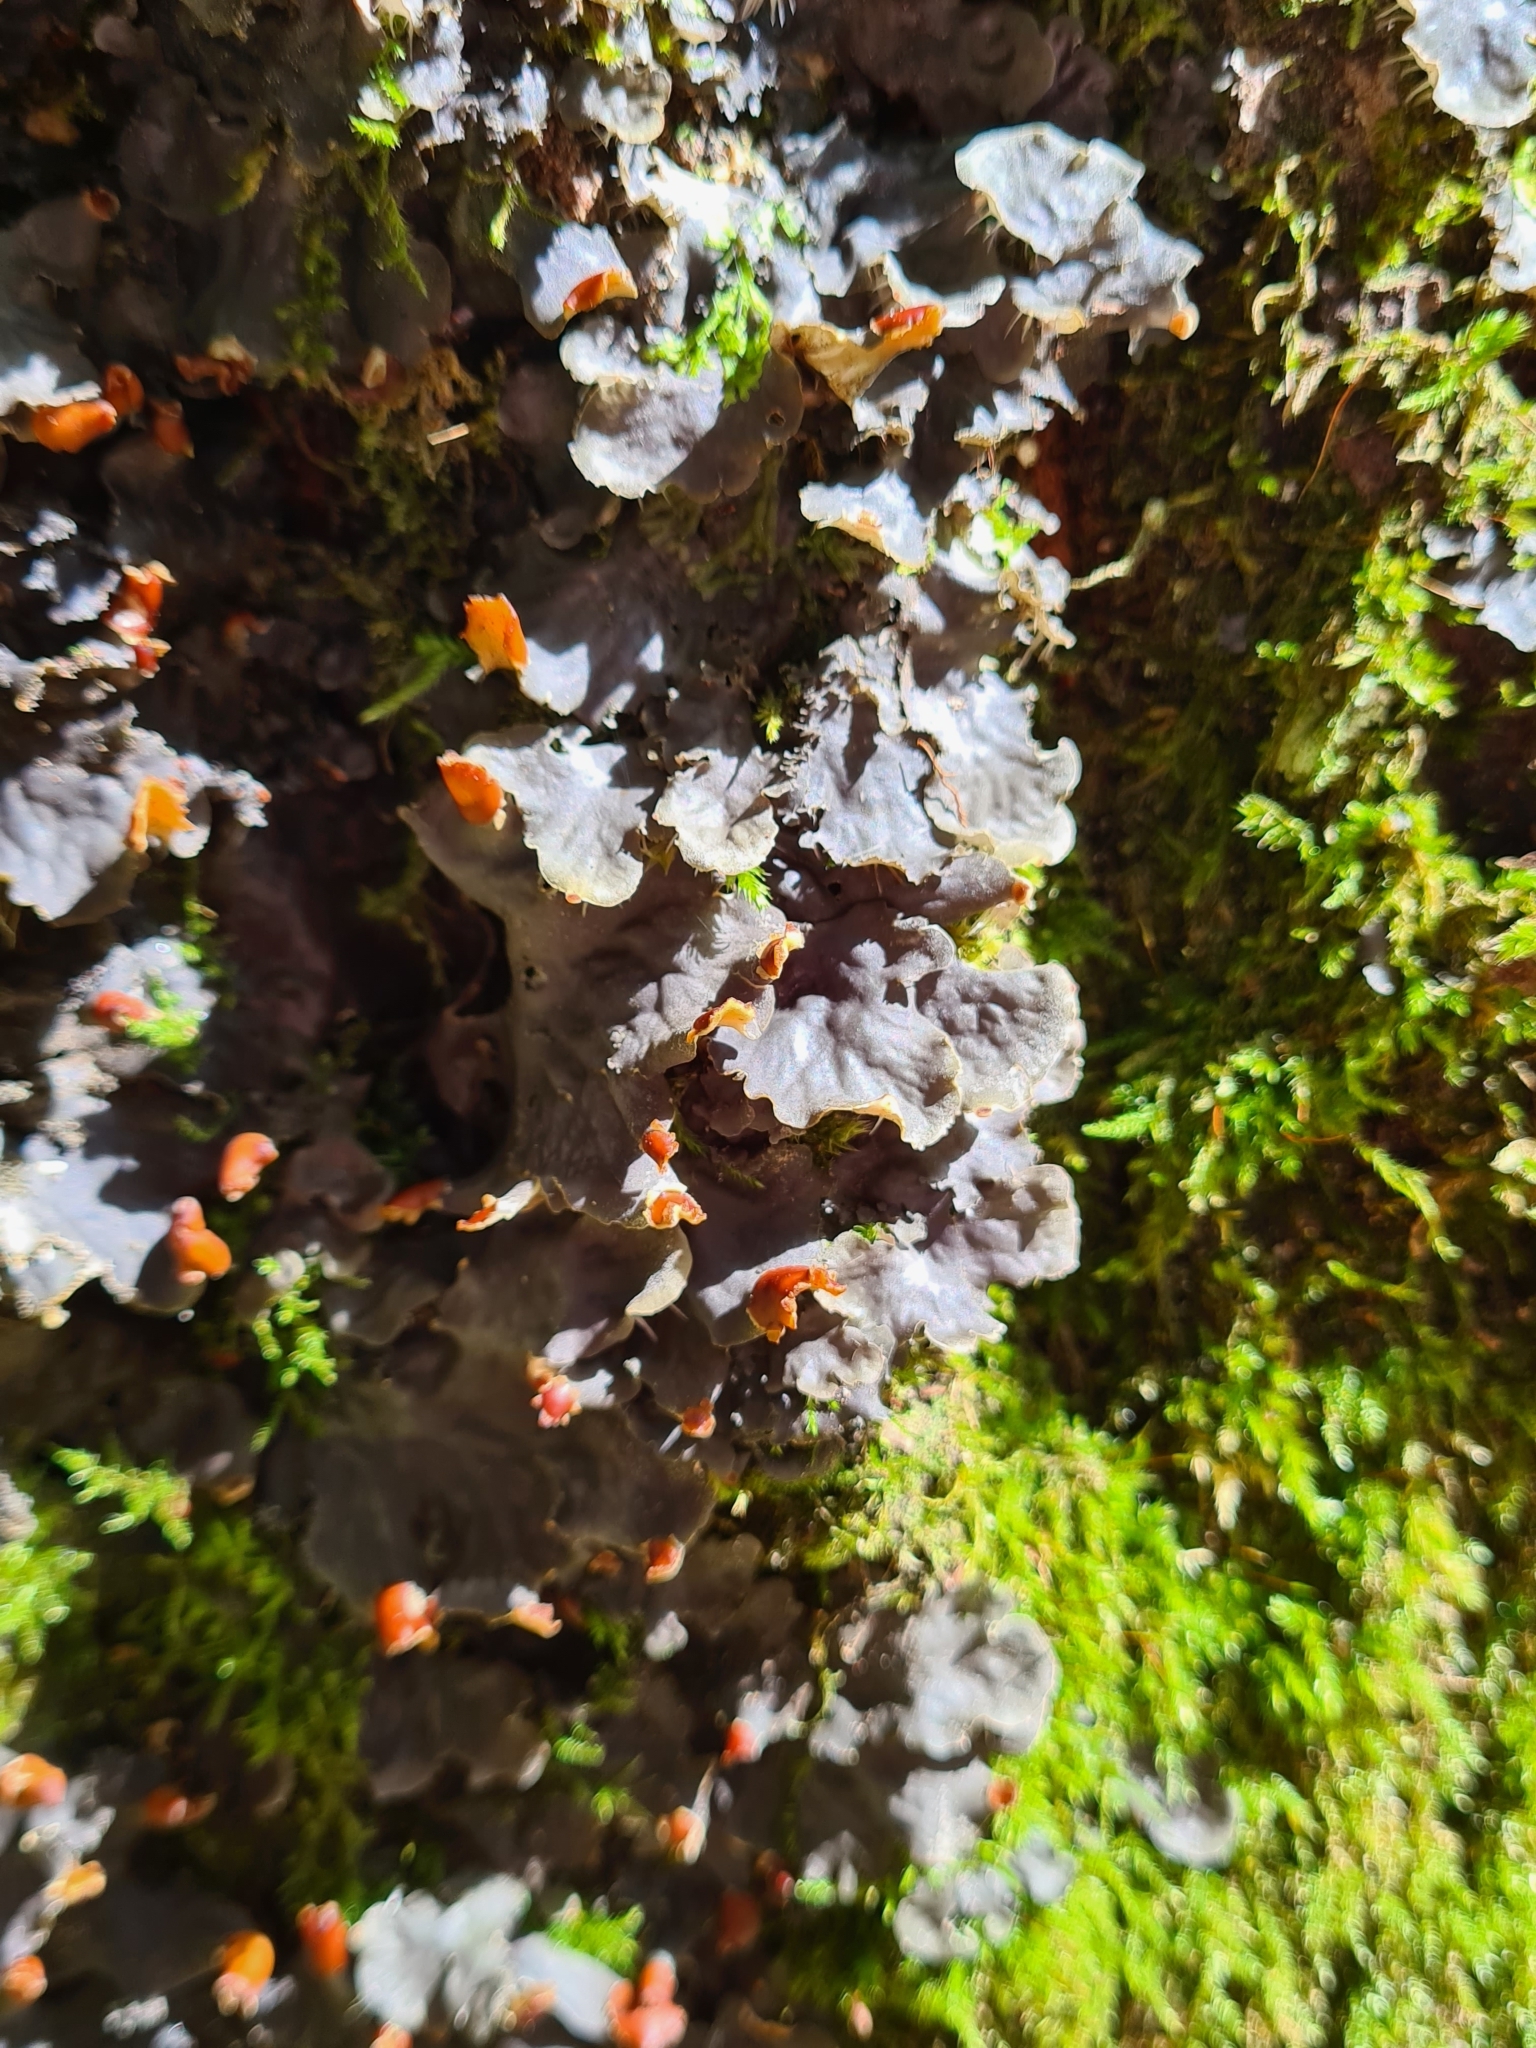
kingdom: Fungi
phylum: Ascomycota
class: Lecanoromycetes
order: Peltigerales
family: Peltigeraceae
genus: Peltigera
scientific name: Peltigera praetextata
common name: Scaly dog-lichen
